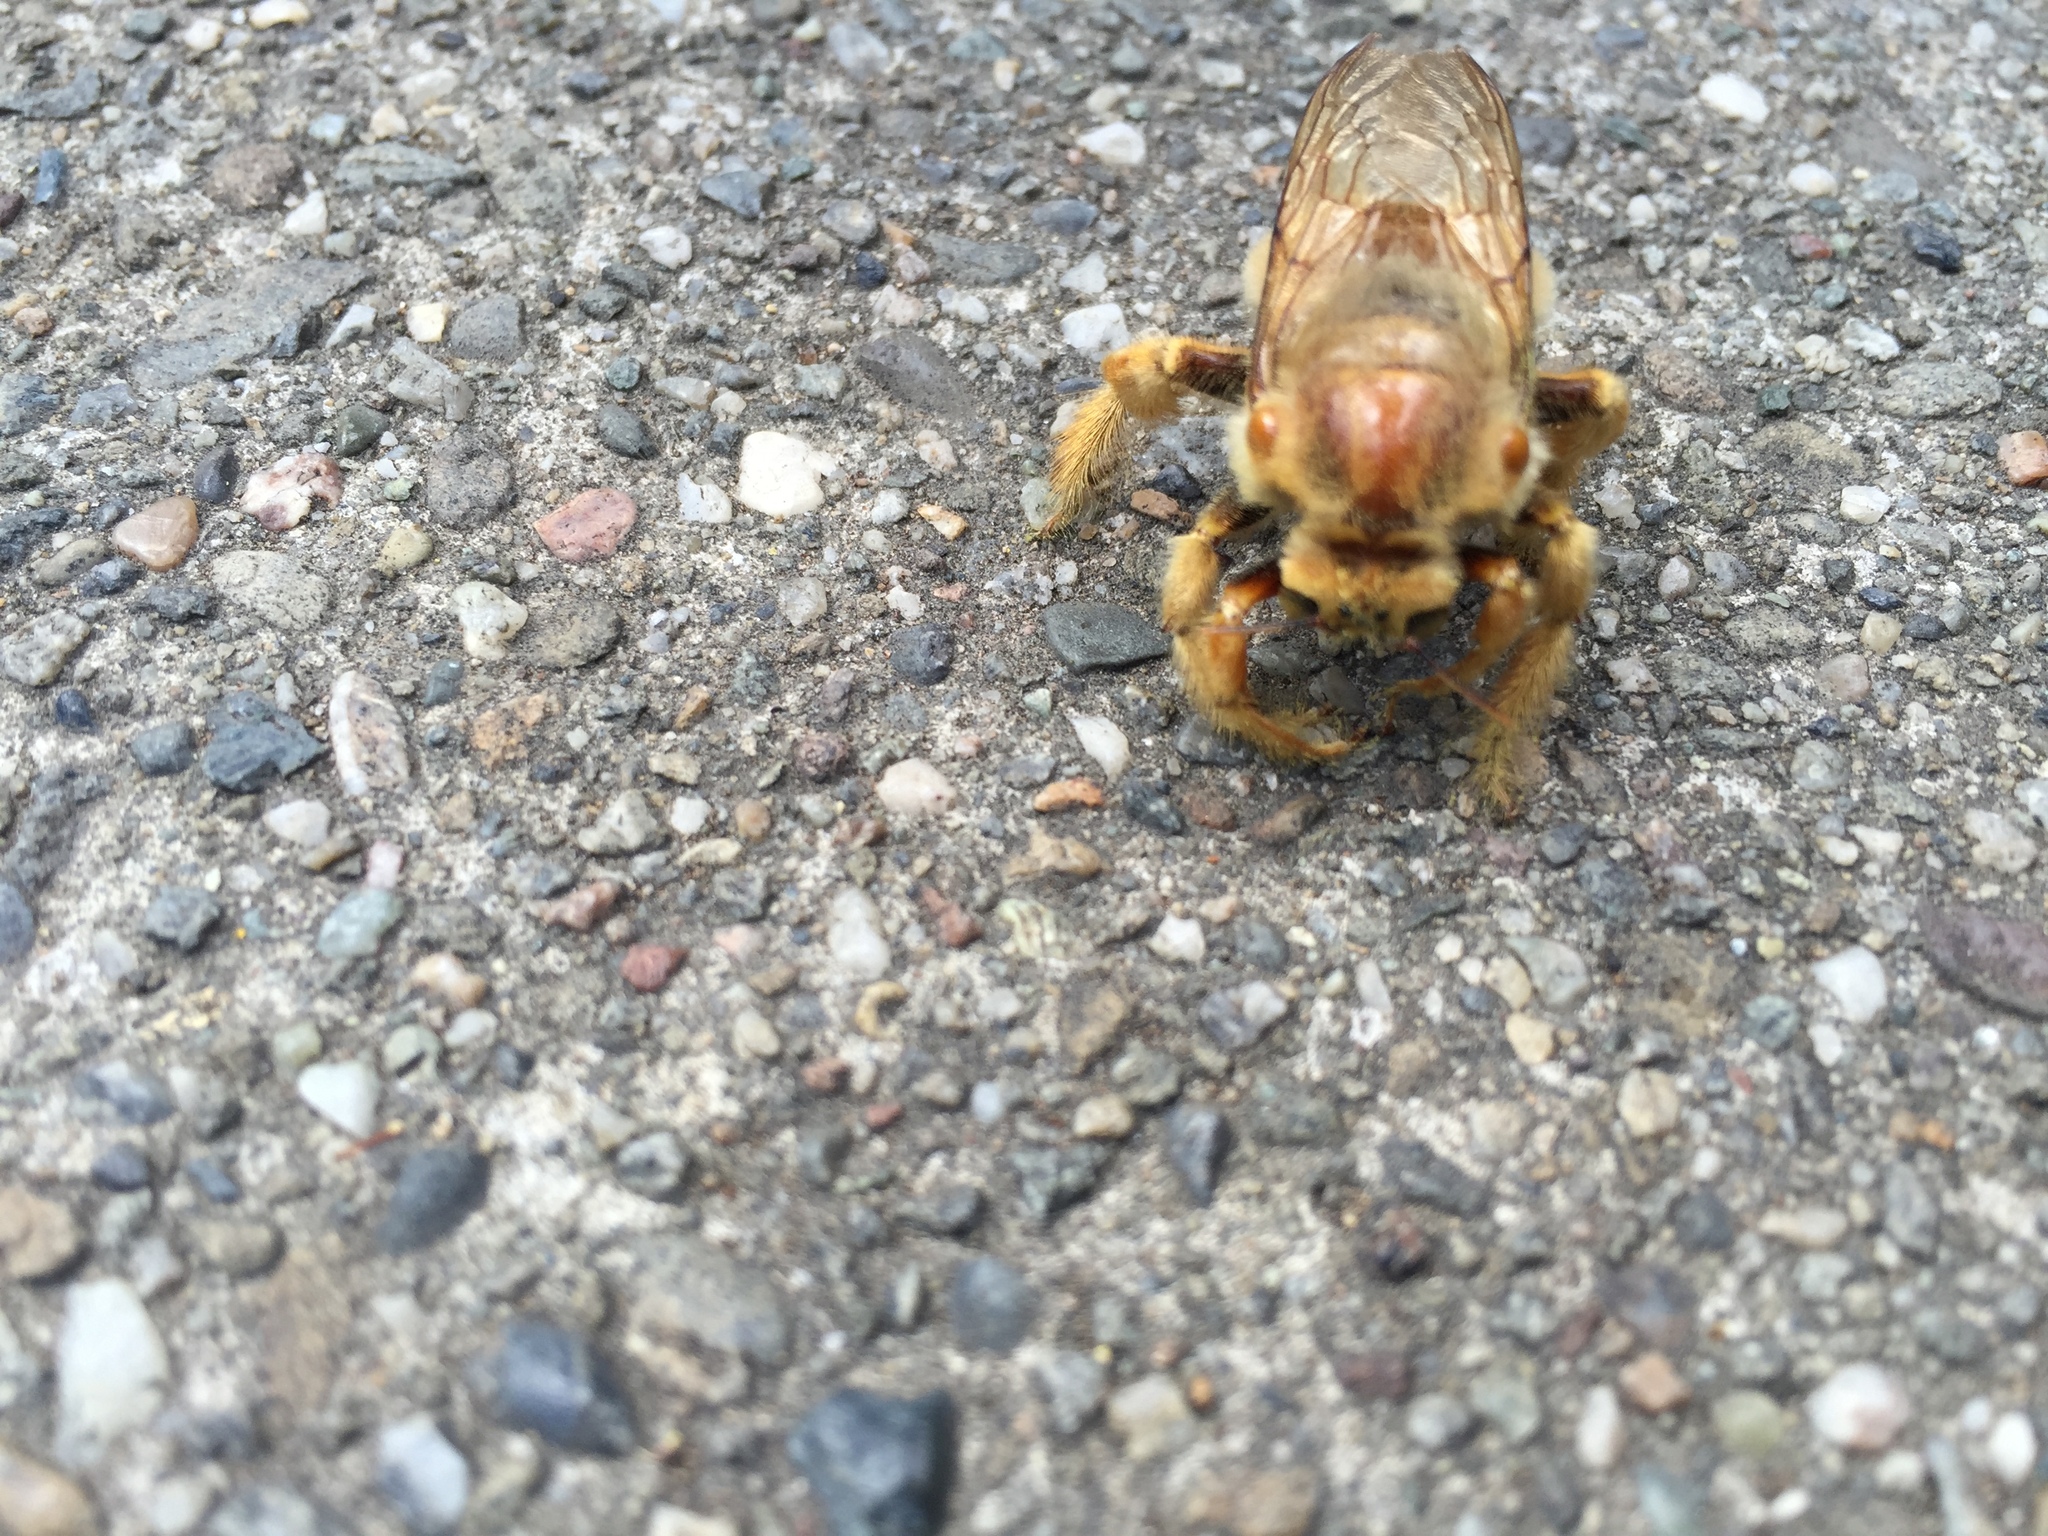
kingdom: Animalia
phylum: Arthropoda
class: Insecta
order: Hymenoptera
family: Apidae
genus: Xylocopa
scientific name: Xylocopa sonorina
